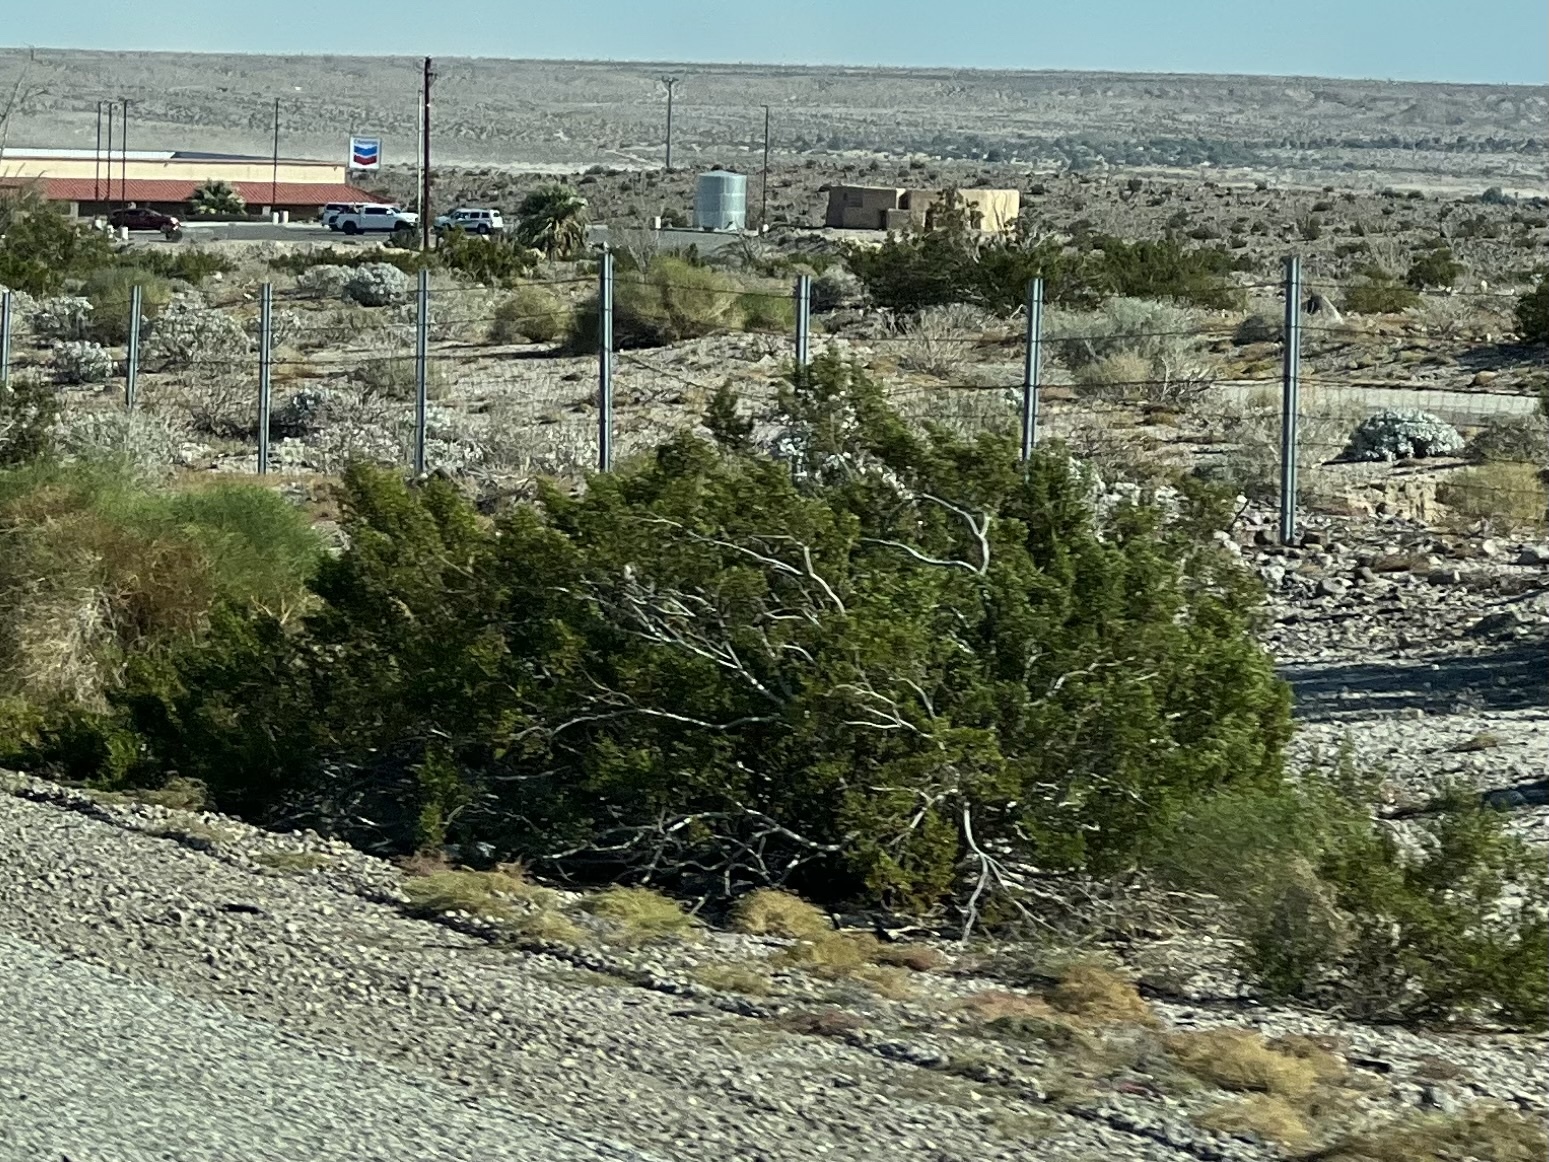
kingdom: Plantae
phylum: Tracheophyta
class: Magnoliopsida
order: Zygophyllales
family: Zygophyllaceae
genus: Larrea
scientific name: Larrea tridentata
